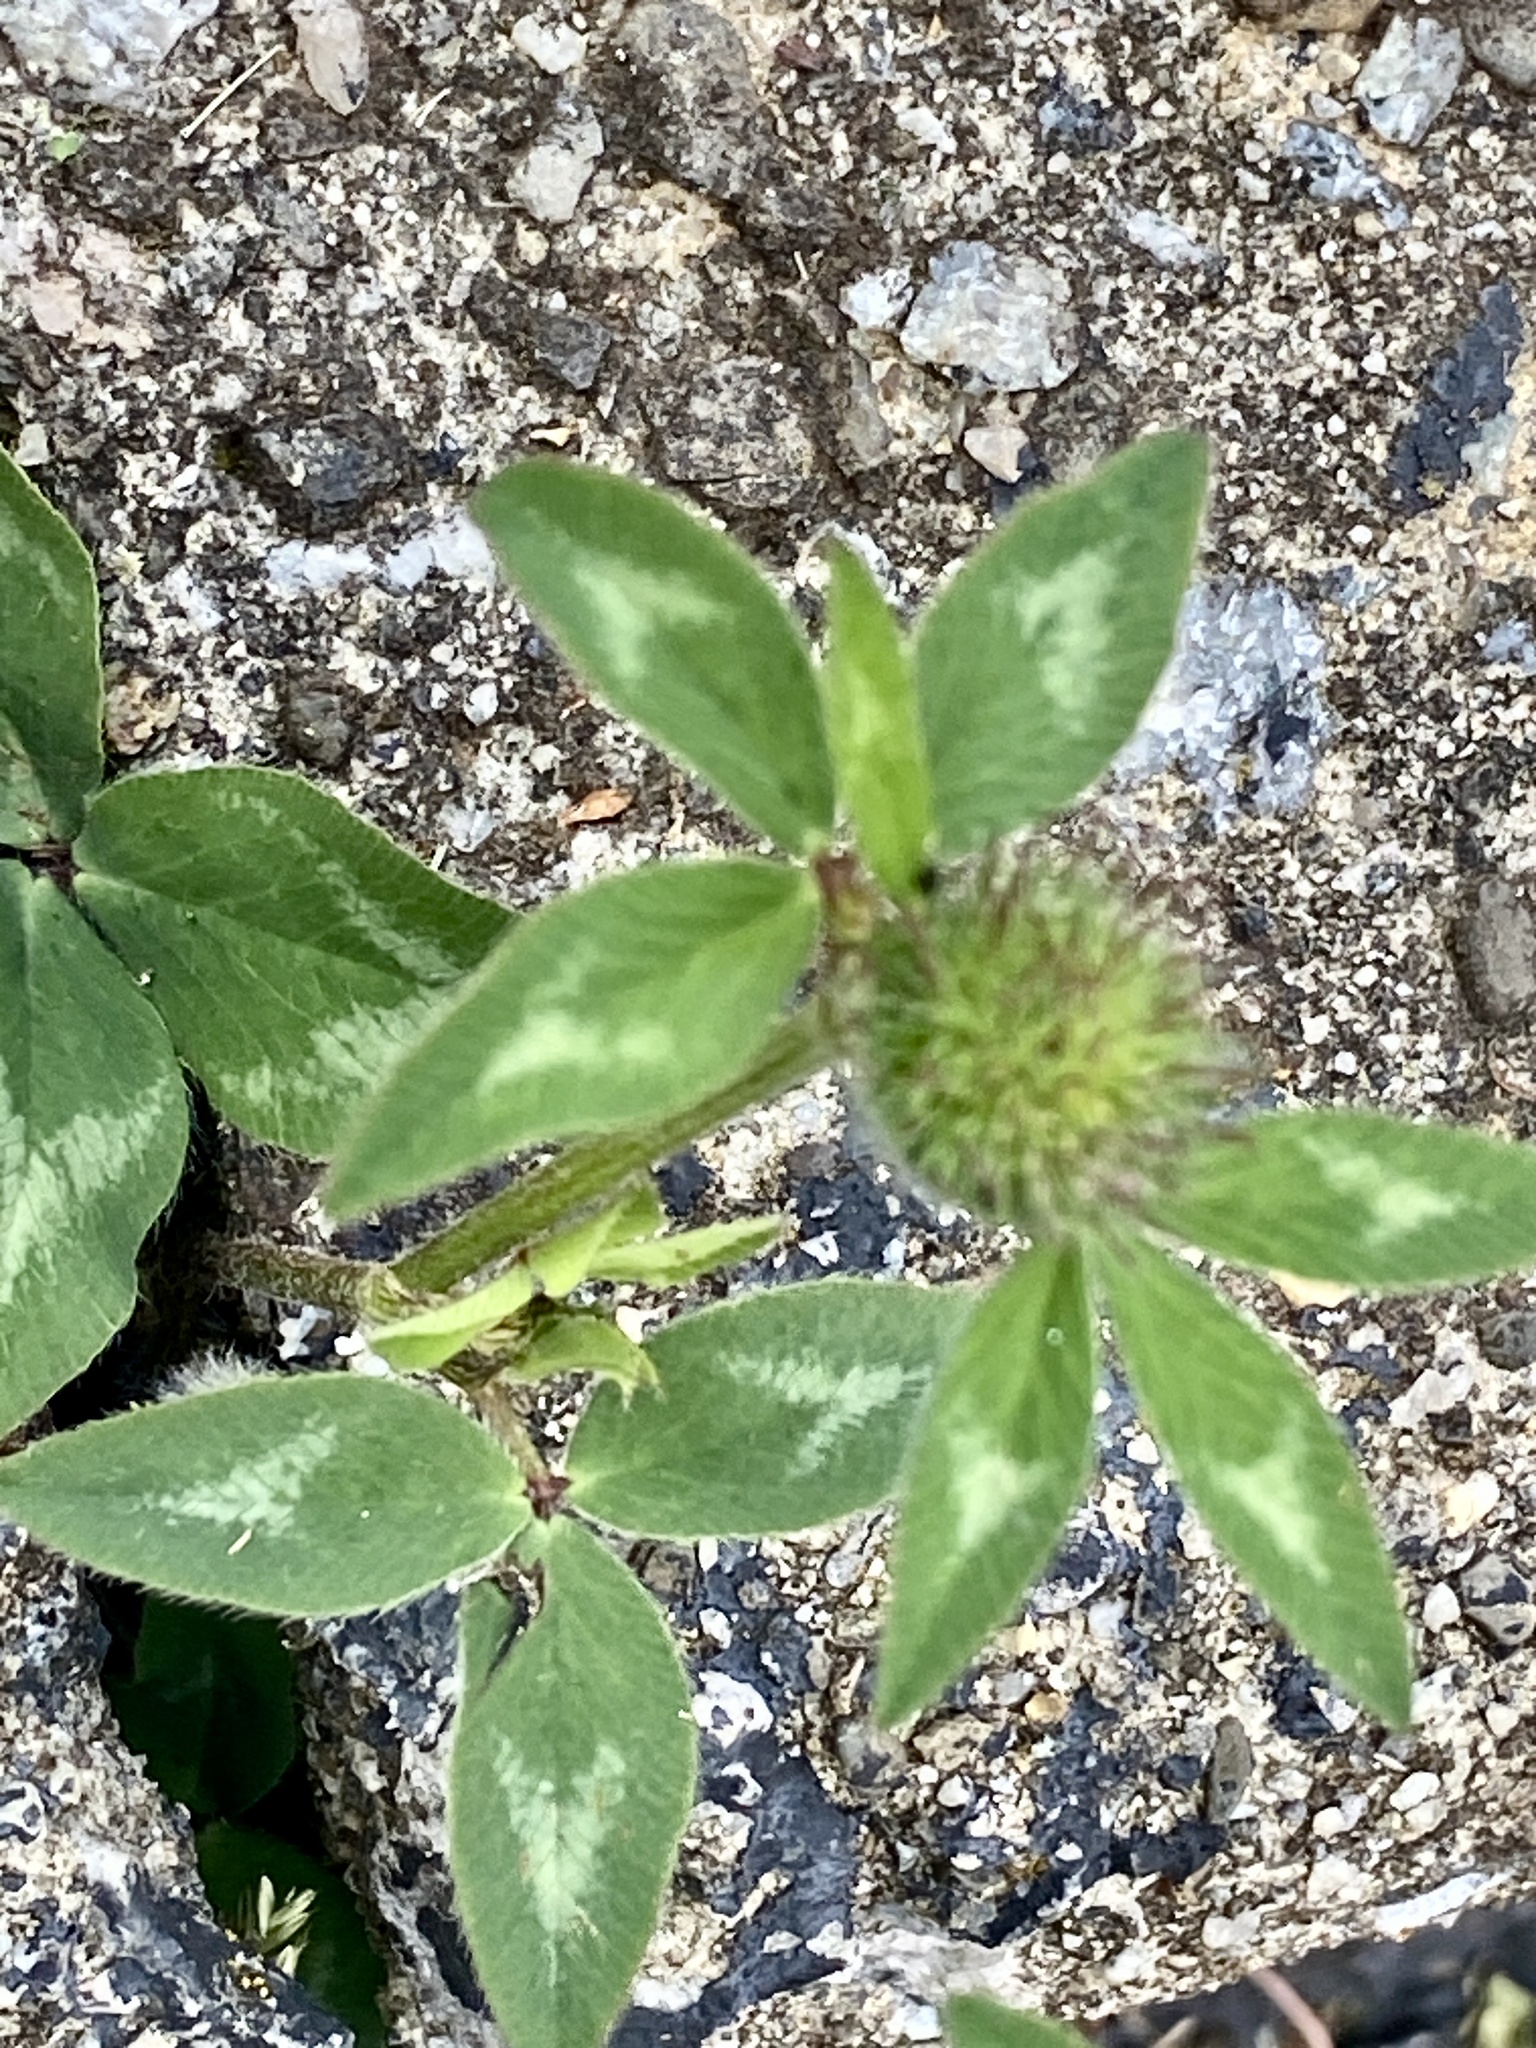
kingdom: Plantae
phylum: Tracheophyta
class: Magnoliopsida
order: Fabales
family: Fabaceae
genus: Trifolium
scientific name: Trifolium pratense
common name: Red clover
